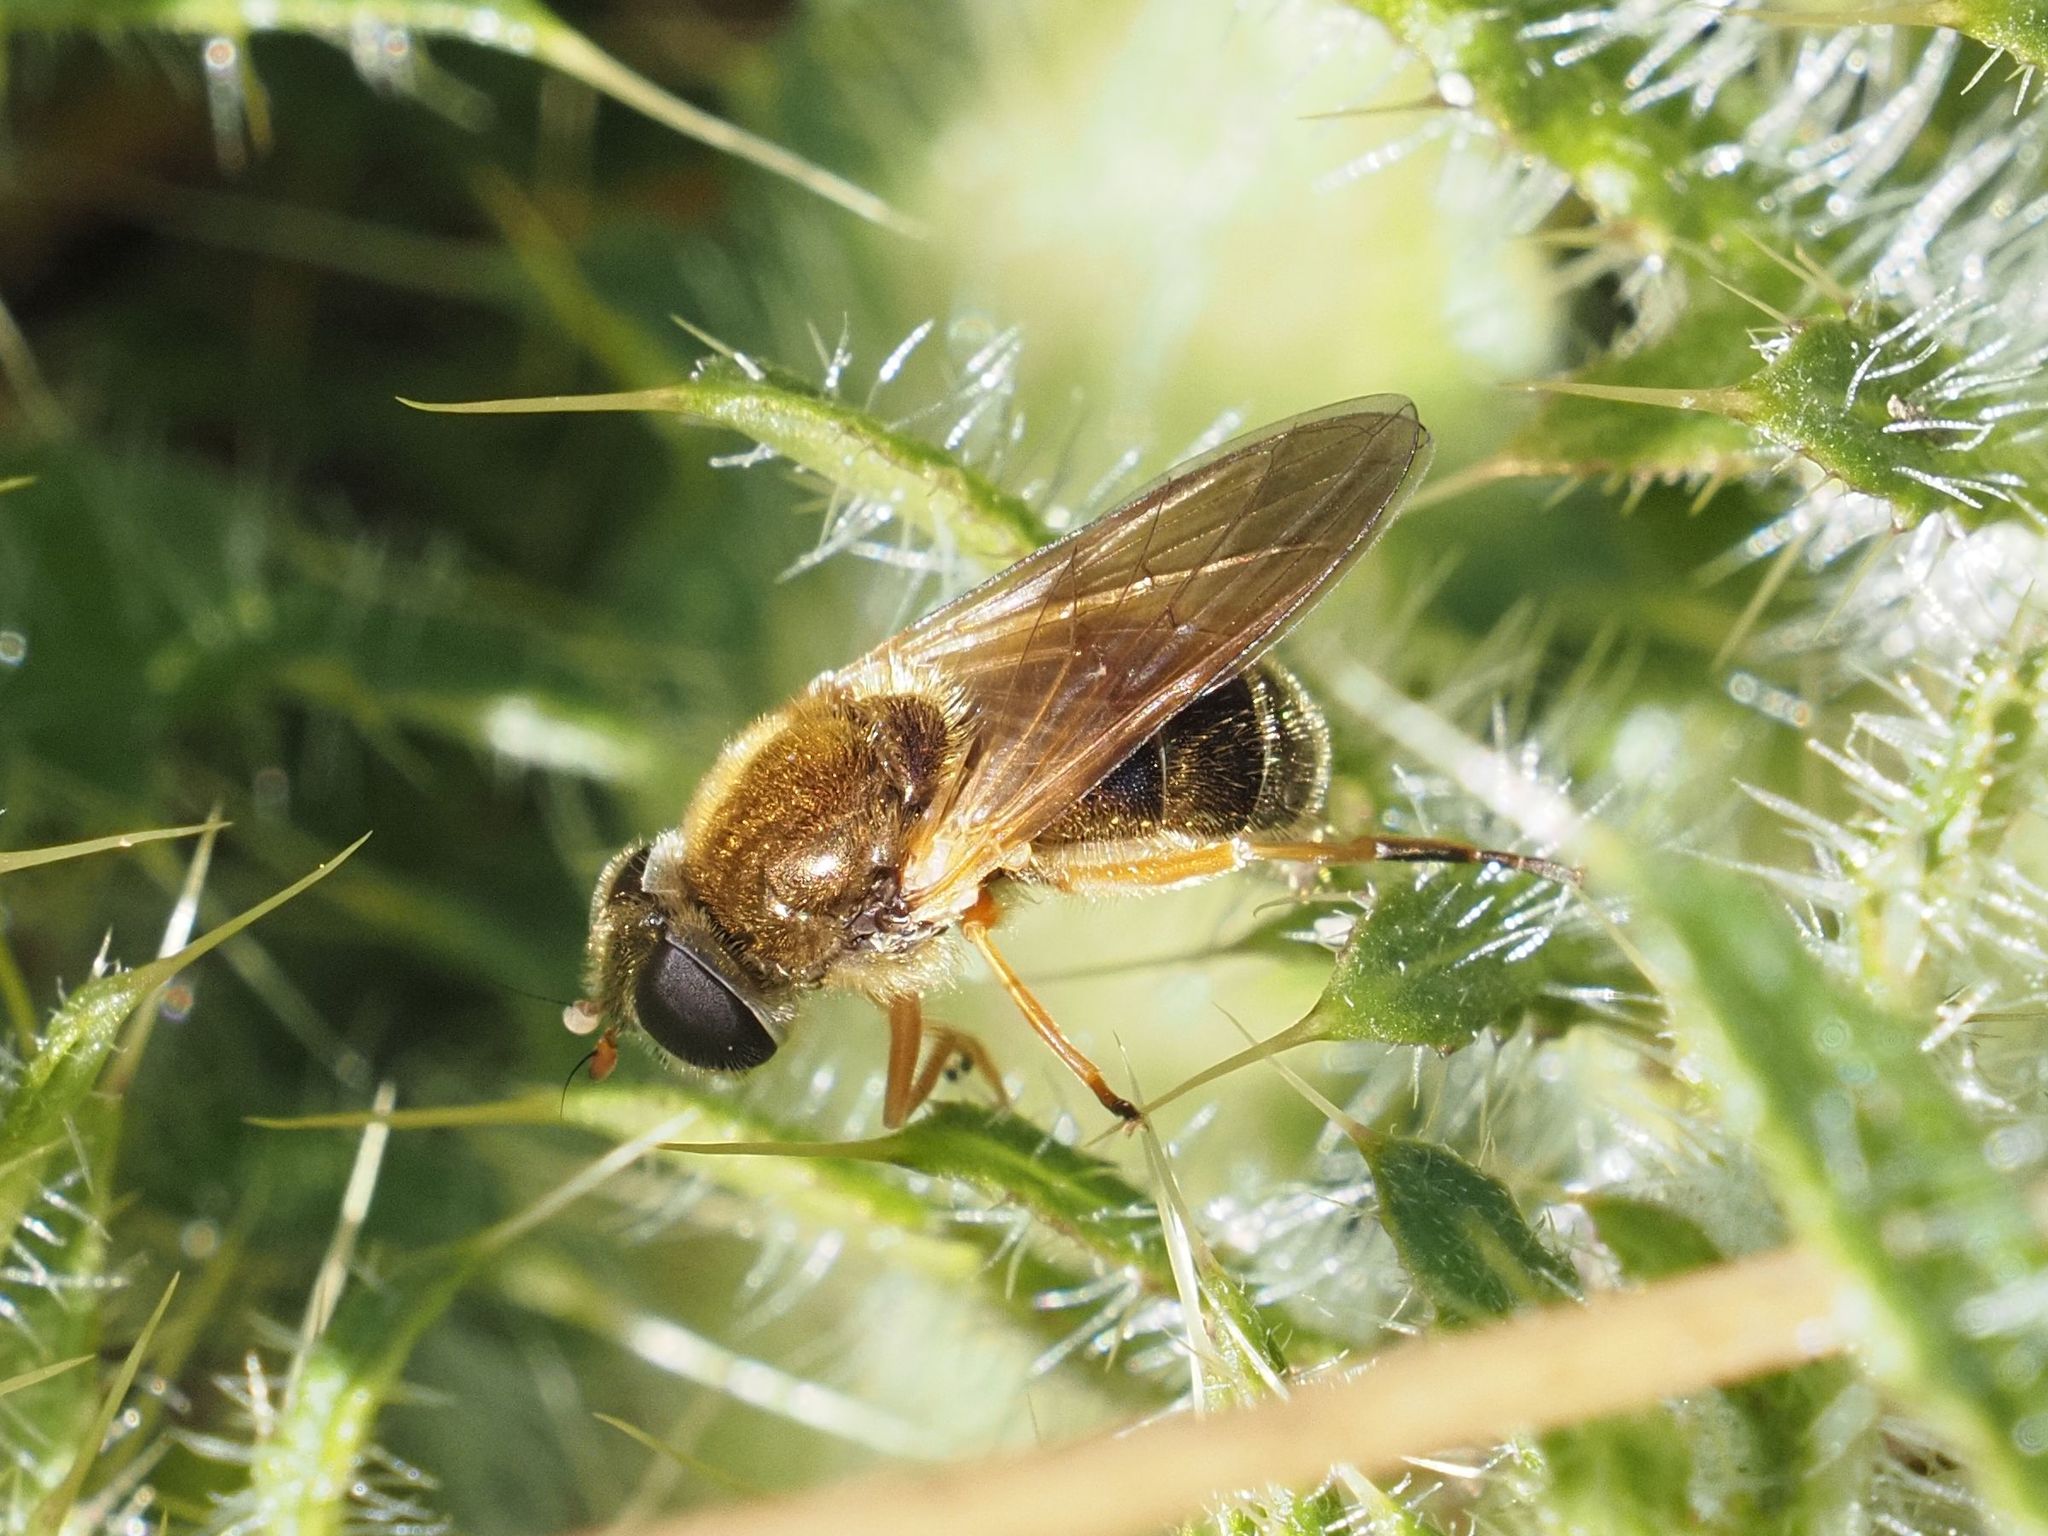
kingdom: Animalia
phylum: Arthropoda
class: Insecta
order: Diptera
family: Syrphidae
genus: Cheilosia
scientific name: Cheilosia albipila
